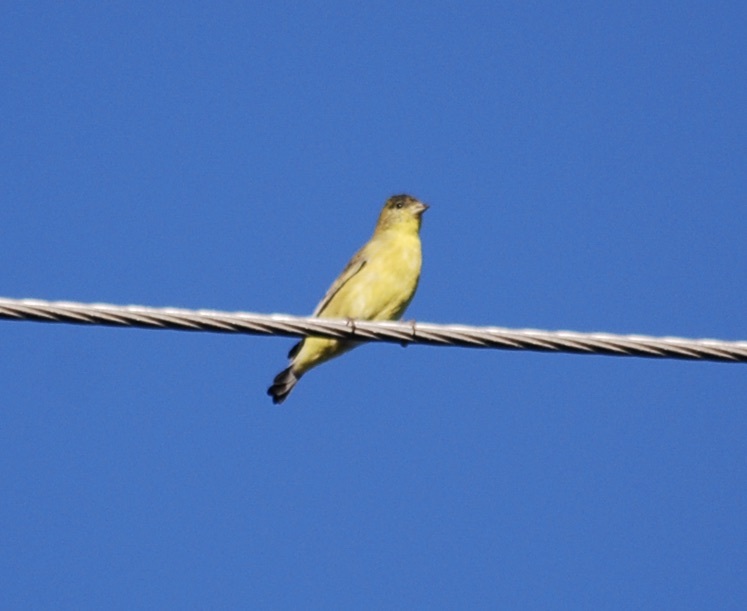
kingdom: Animalia
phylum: Chordata
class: Aves
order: Passeriformes
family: Fringillidae
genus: Spinus
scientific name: Spinus psaltria
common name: Lesser goldfinch
